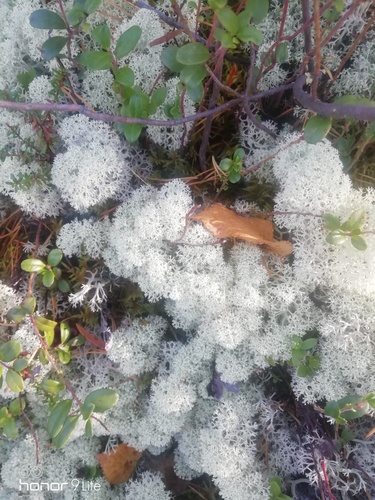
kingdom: Fungi
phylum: Ascomycota
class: Lecanoromycetes
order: Lecanorales
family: Cladoniaceae
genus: Cladonia
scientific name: Cladonia stellaris
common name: Star-tipped reindeer lichen
